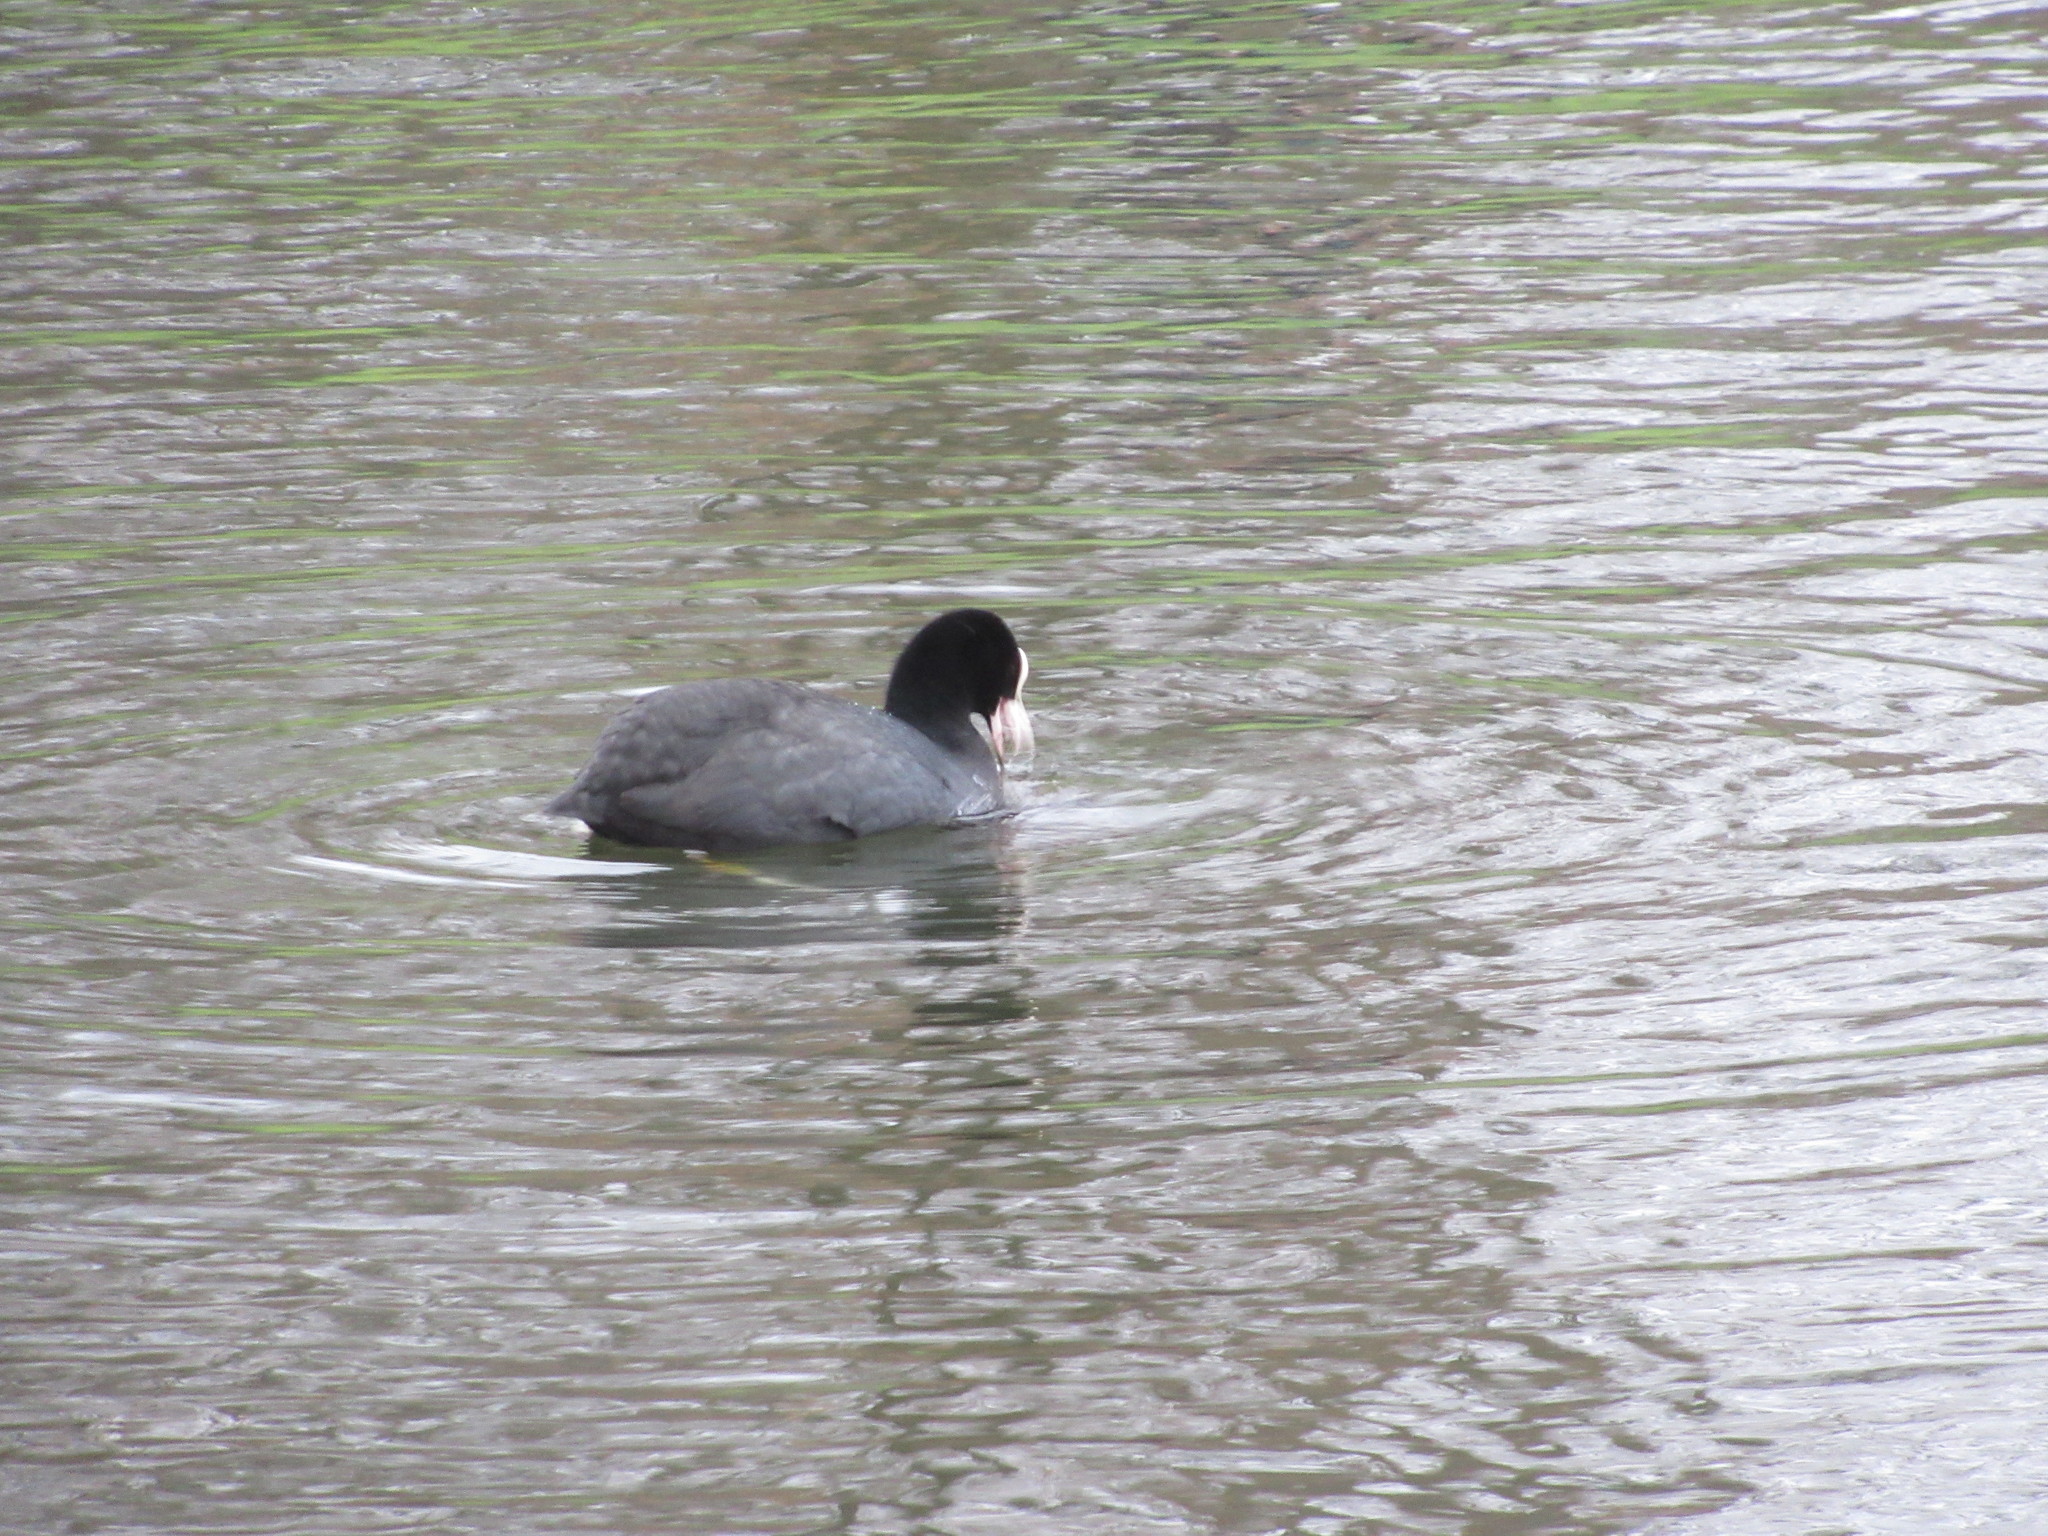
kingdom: Animalia
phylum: Chordata
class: Aves
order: Gruiformes
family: Rallidae
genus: Fulica
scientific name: Fulica atra
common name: Eurasian coot
